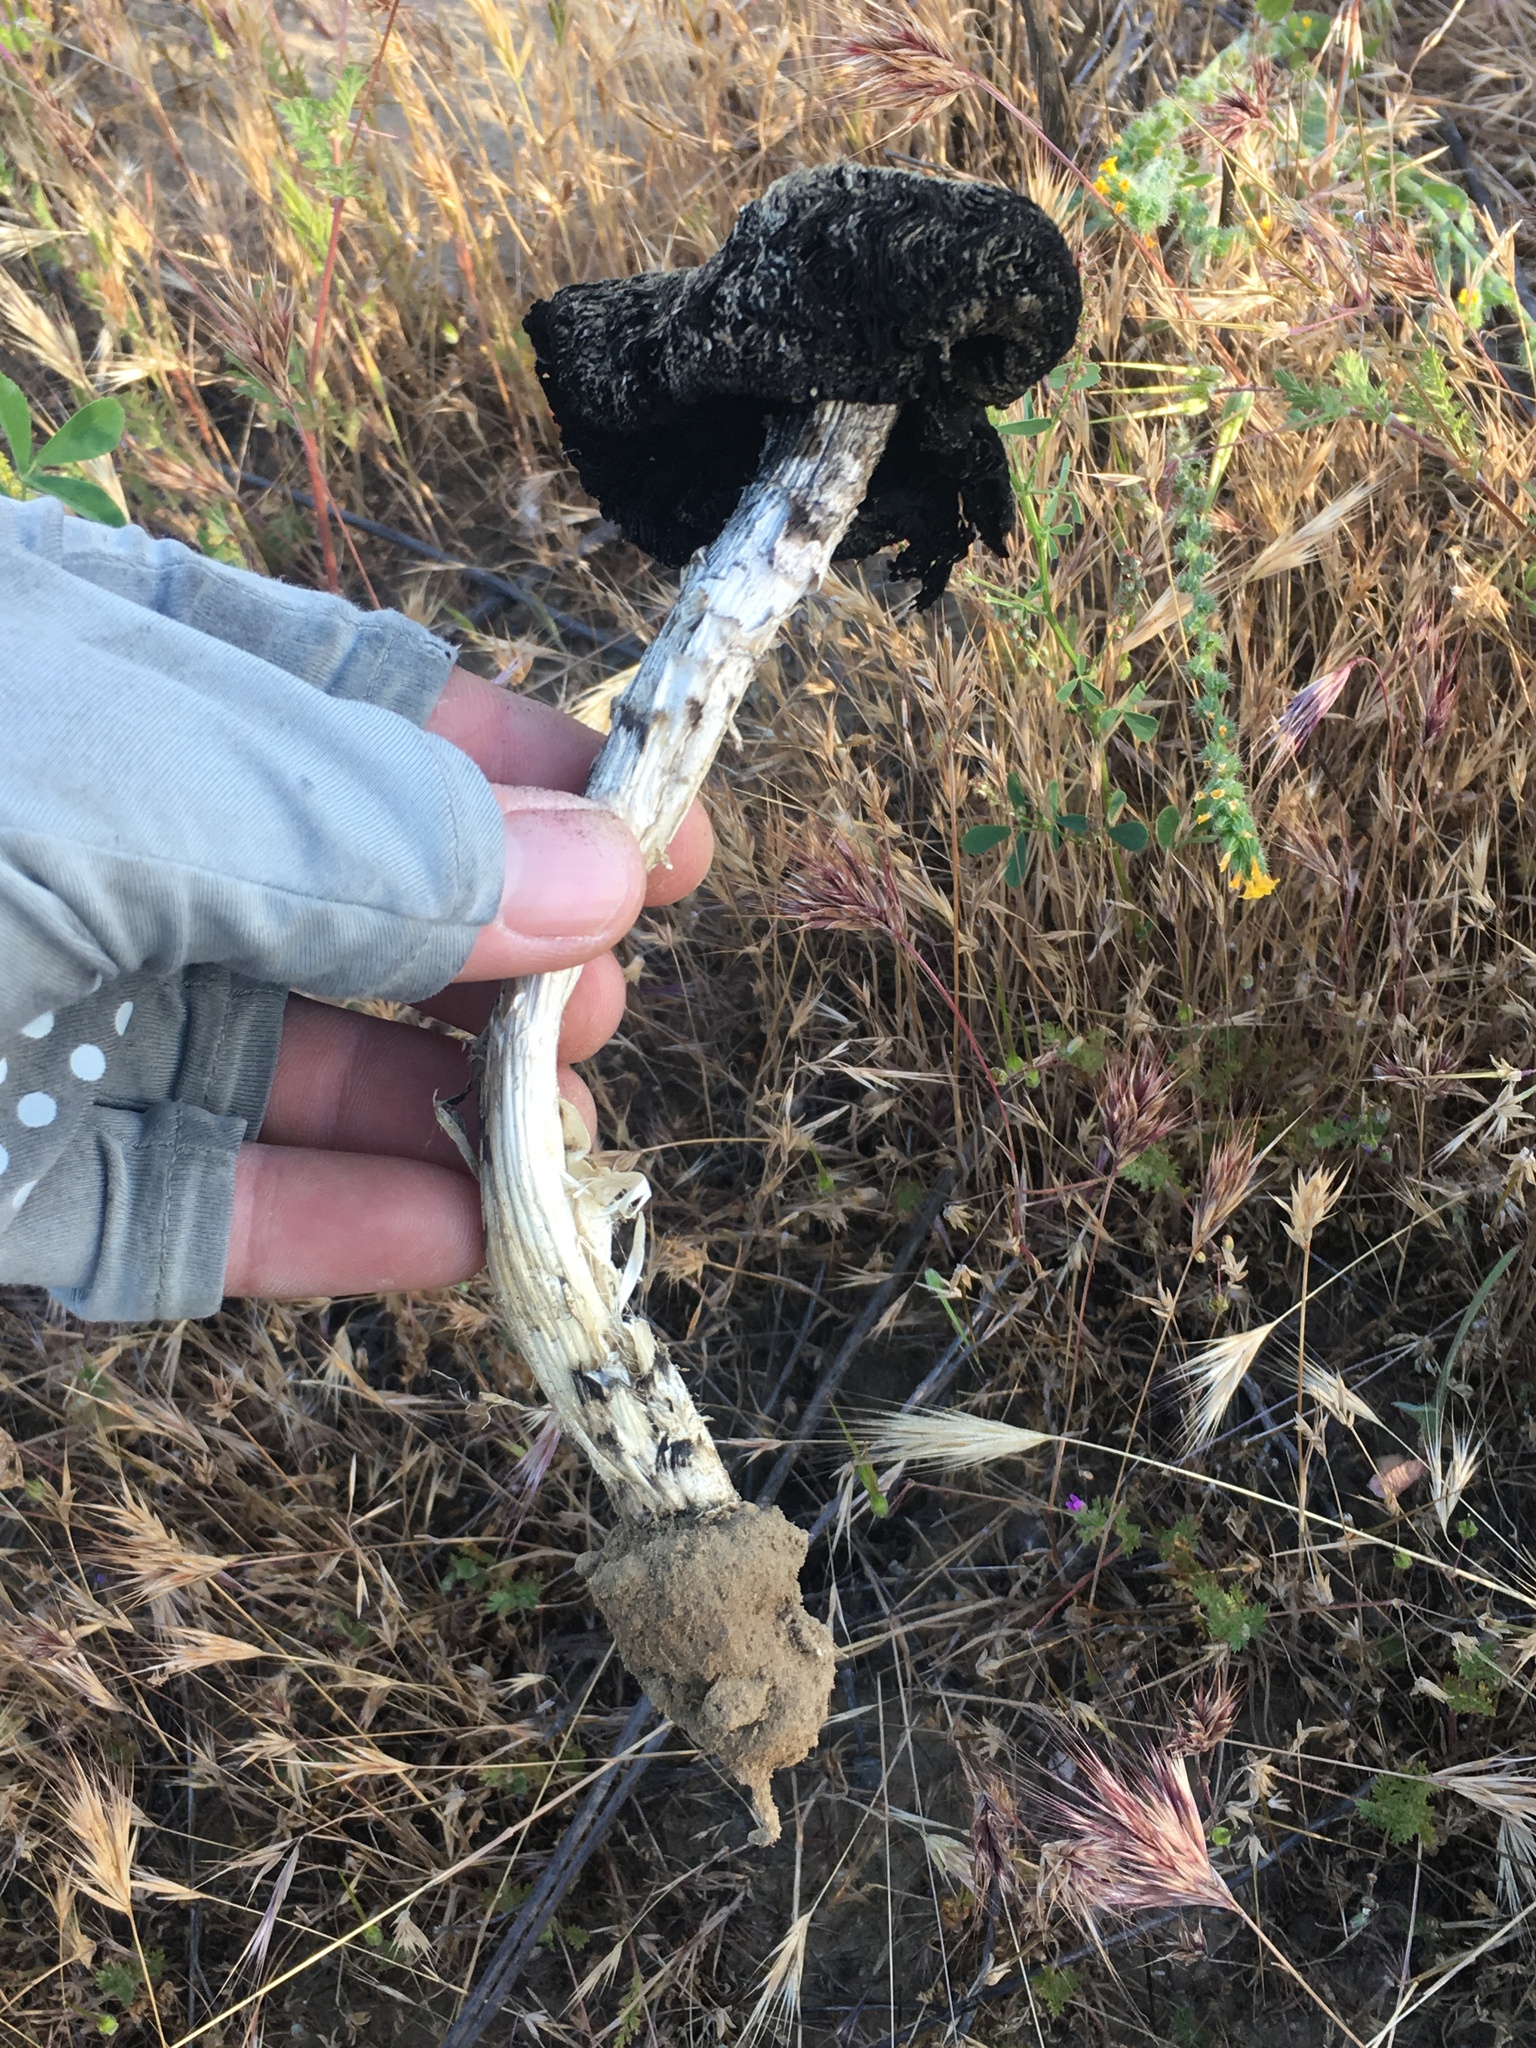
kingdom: Fungi
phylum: Basidiomycota
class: Agaricomycetes
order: Agaricales
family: Agaricaceae
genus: Montagnea
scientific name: Montagnea arenaria
